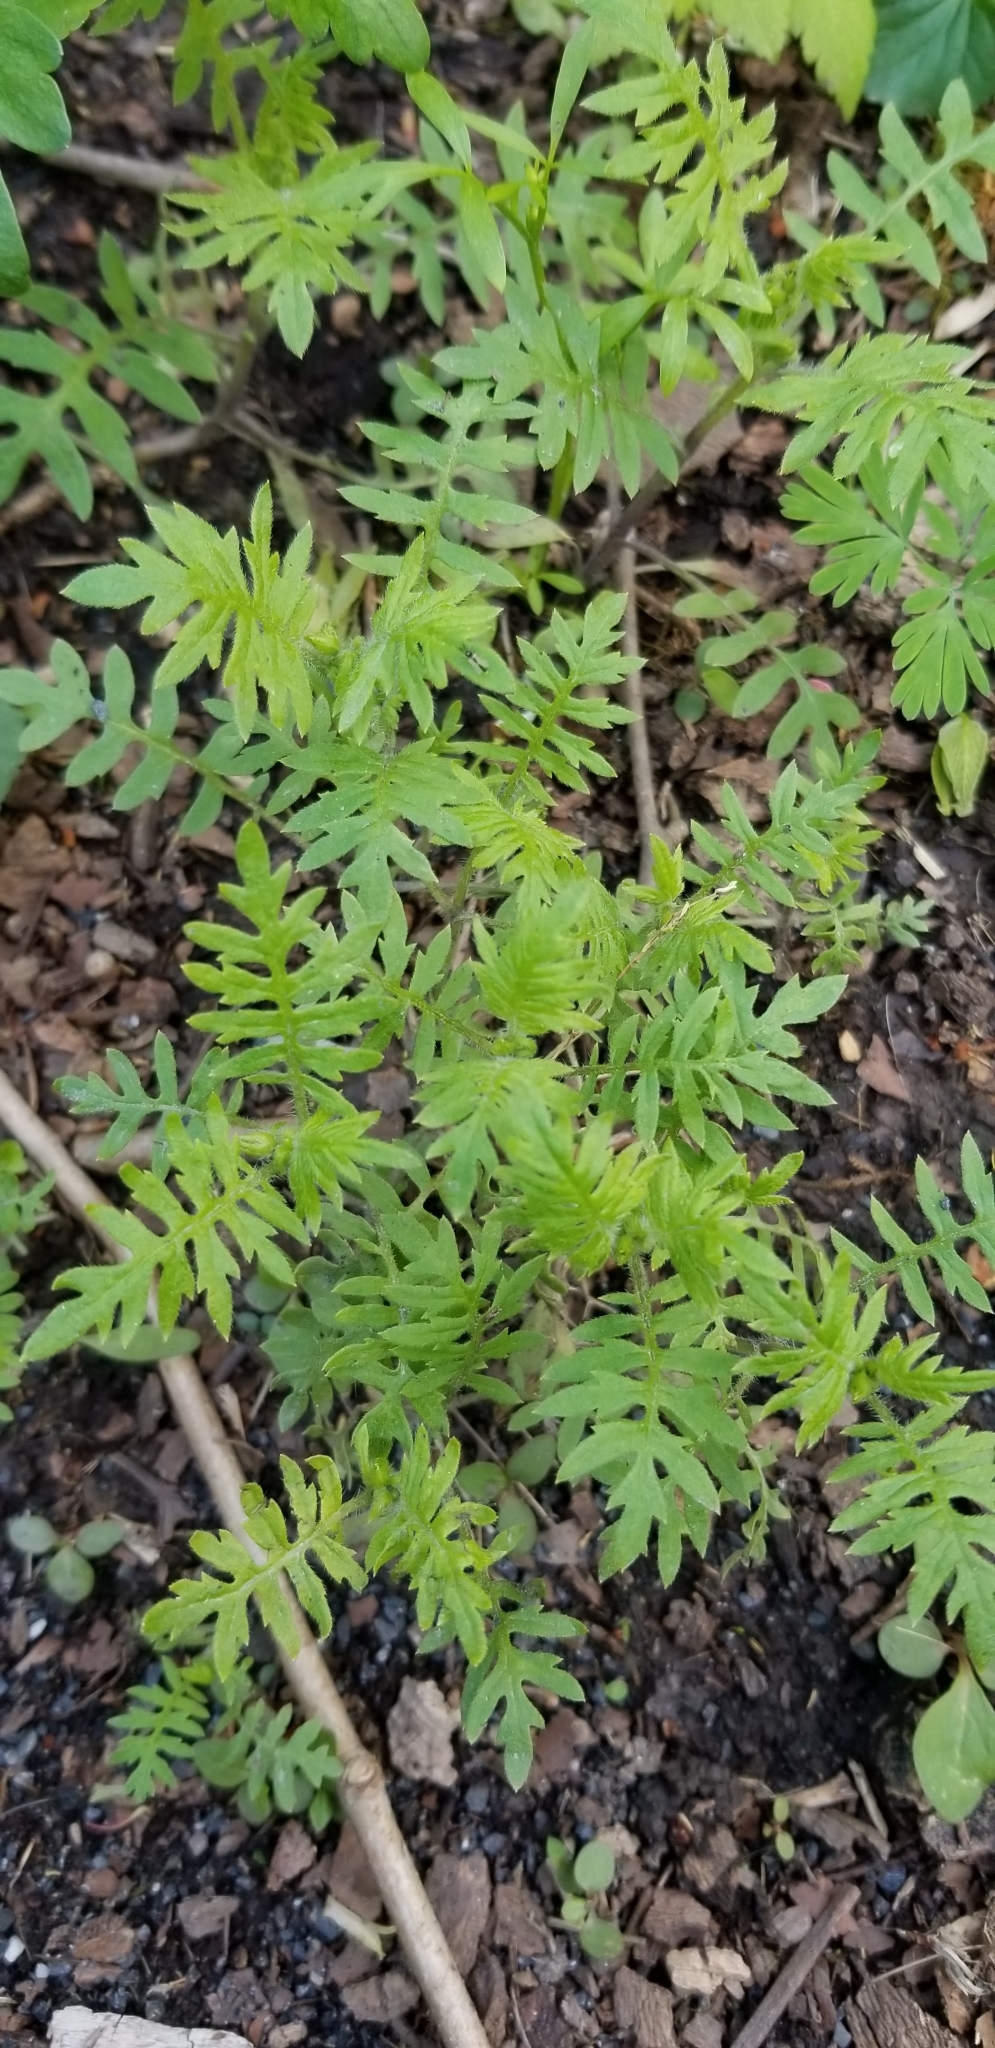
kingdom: Plantae
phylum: Tracheophyta
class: Magnoliopsida
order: Boraginales
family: Hydrophyllaceae
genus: Ellisia
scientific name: Ellisia nyctelea
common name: Aunt lucy
